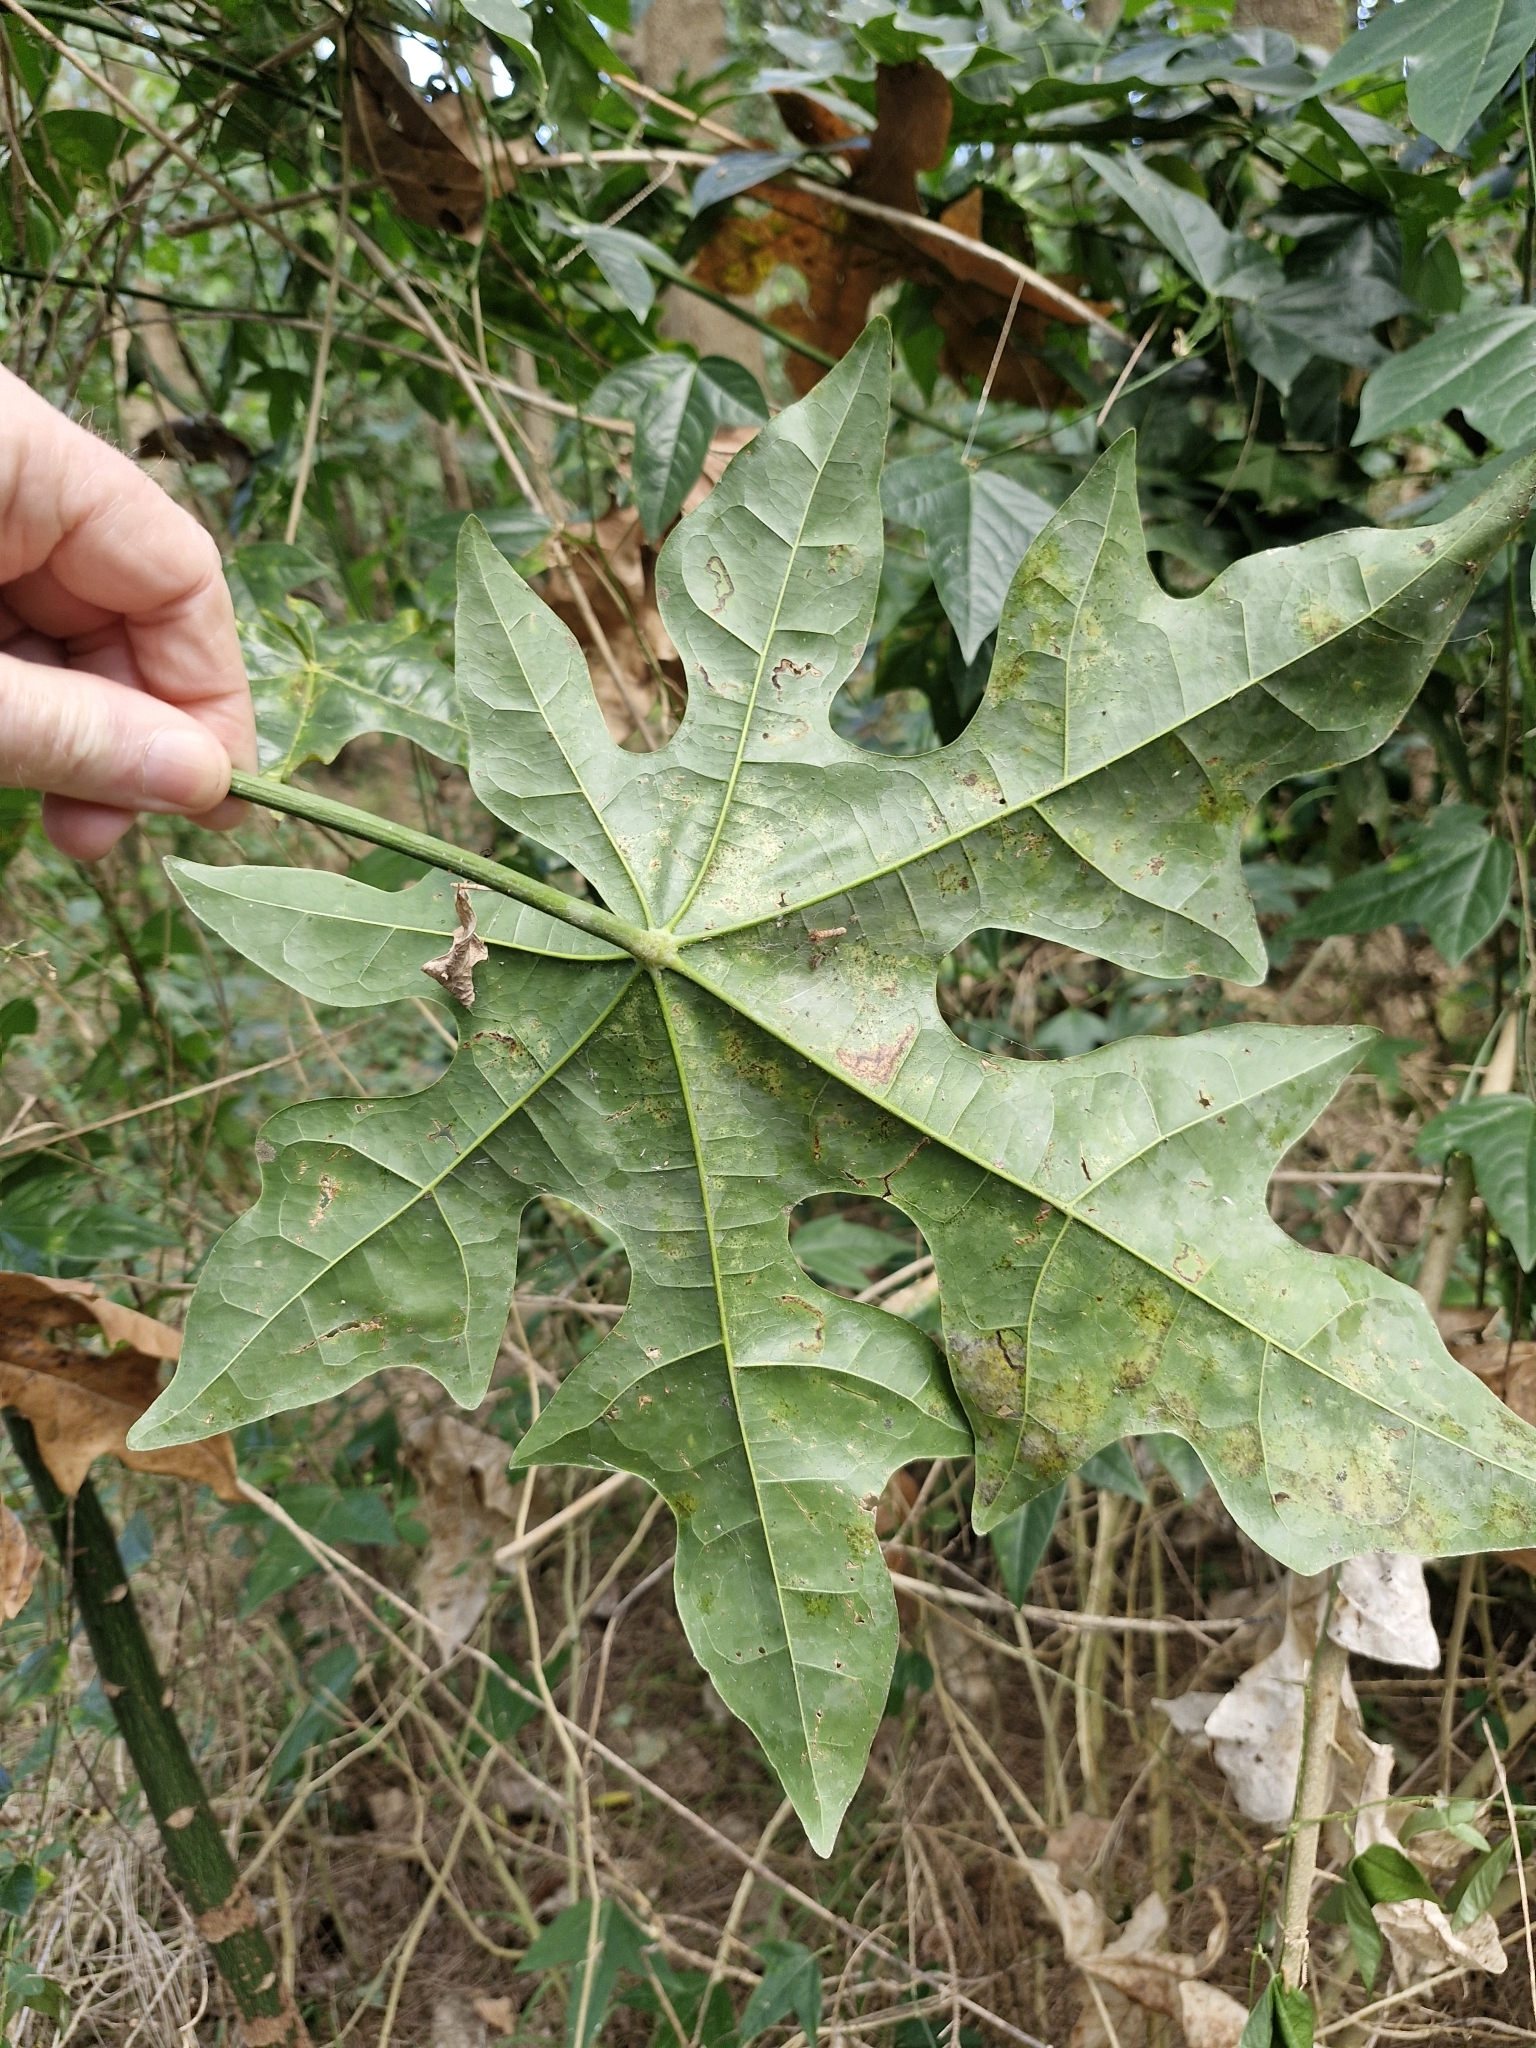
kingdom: Plantae
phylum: Tracheophyta
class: Magnoliopsida
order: Malvales
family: Malvaceae
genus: Brachychiton
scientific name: Brachychiton acerifolius
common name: Illawarra flame tree
